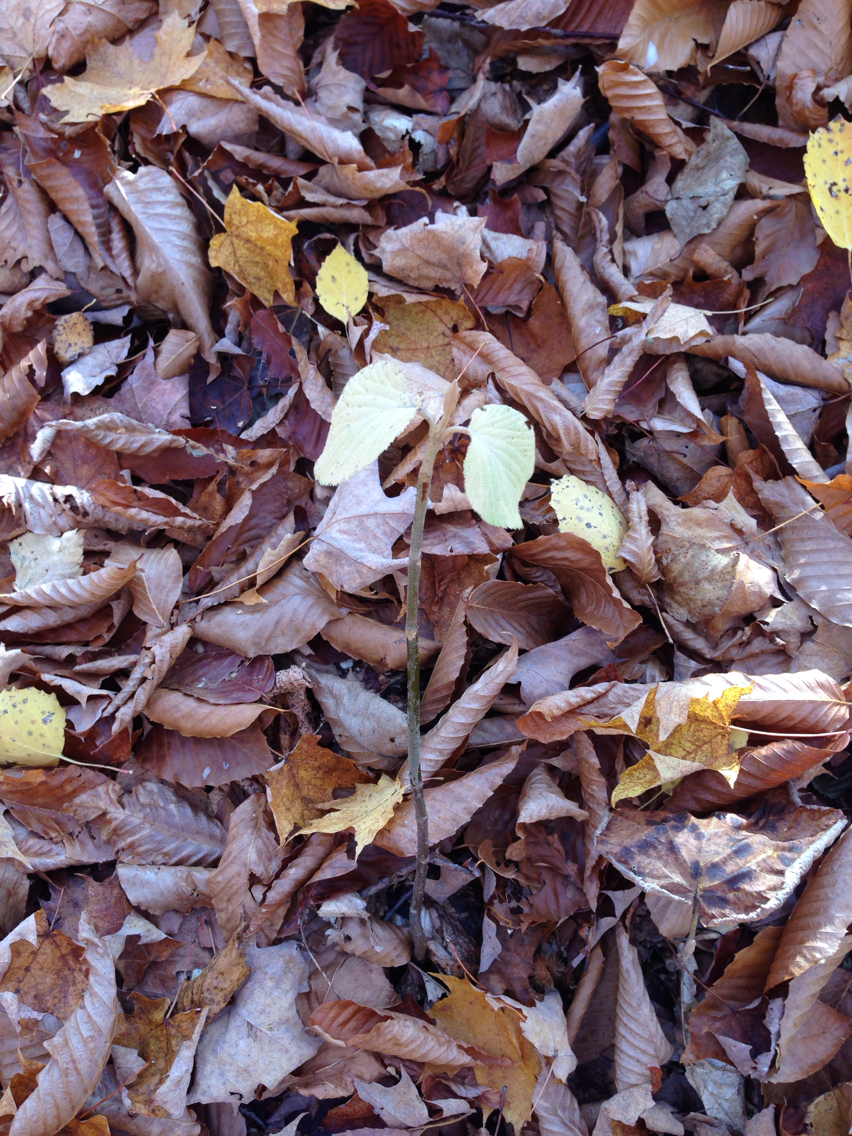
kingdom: Plantae
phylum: Tracheophyta
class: Magnoliopsida
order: Dipsacales
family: Viburnaceae
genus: Viburnum
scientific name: Viburnum lantanoides
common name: Hobblebush
